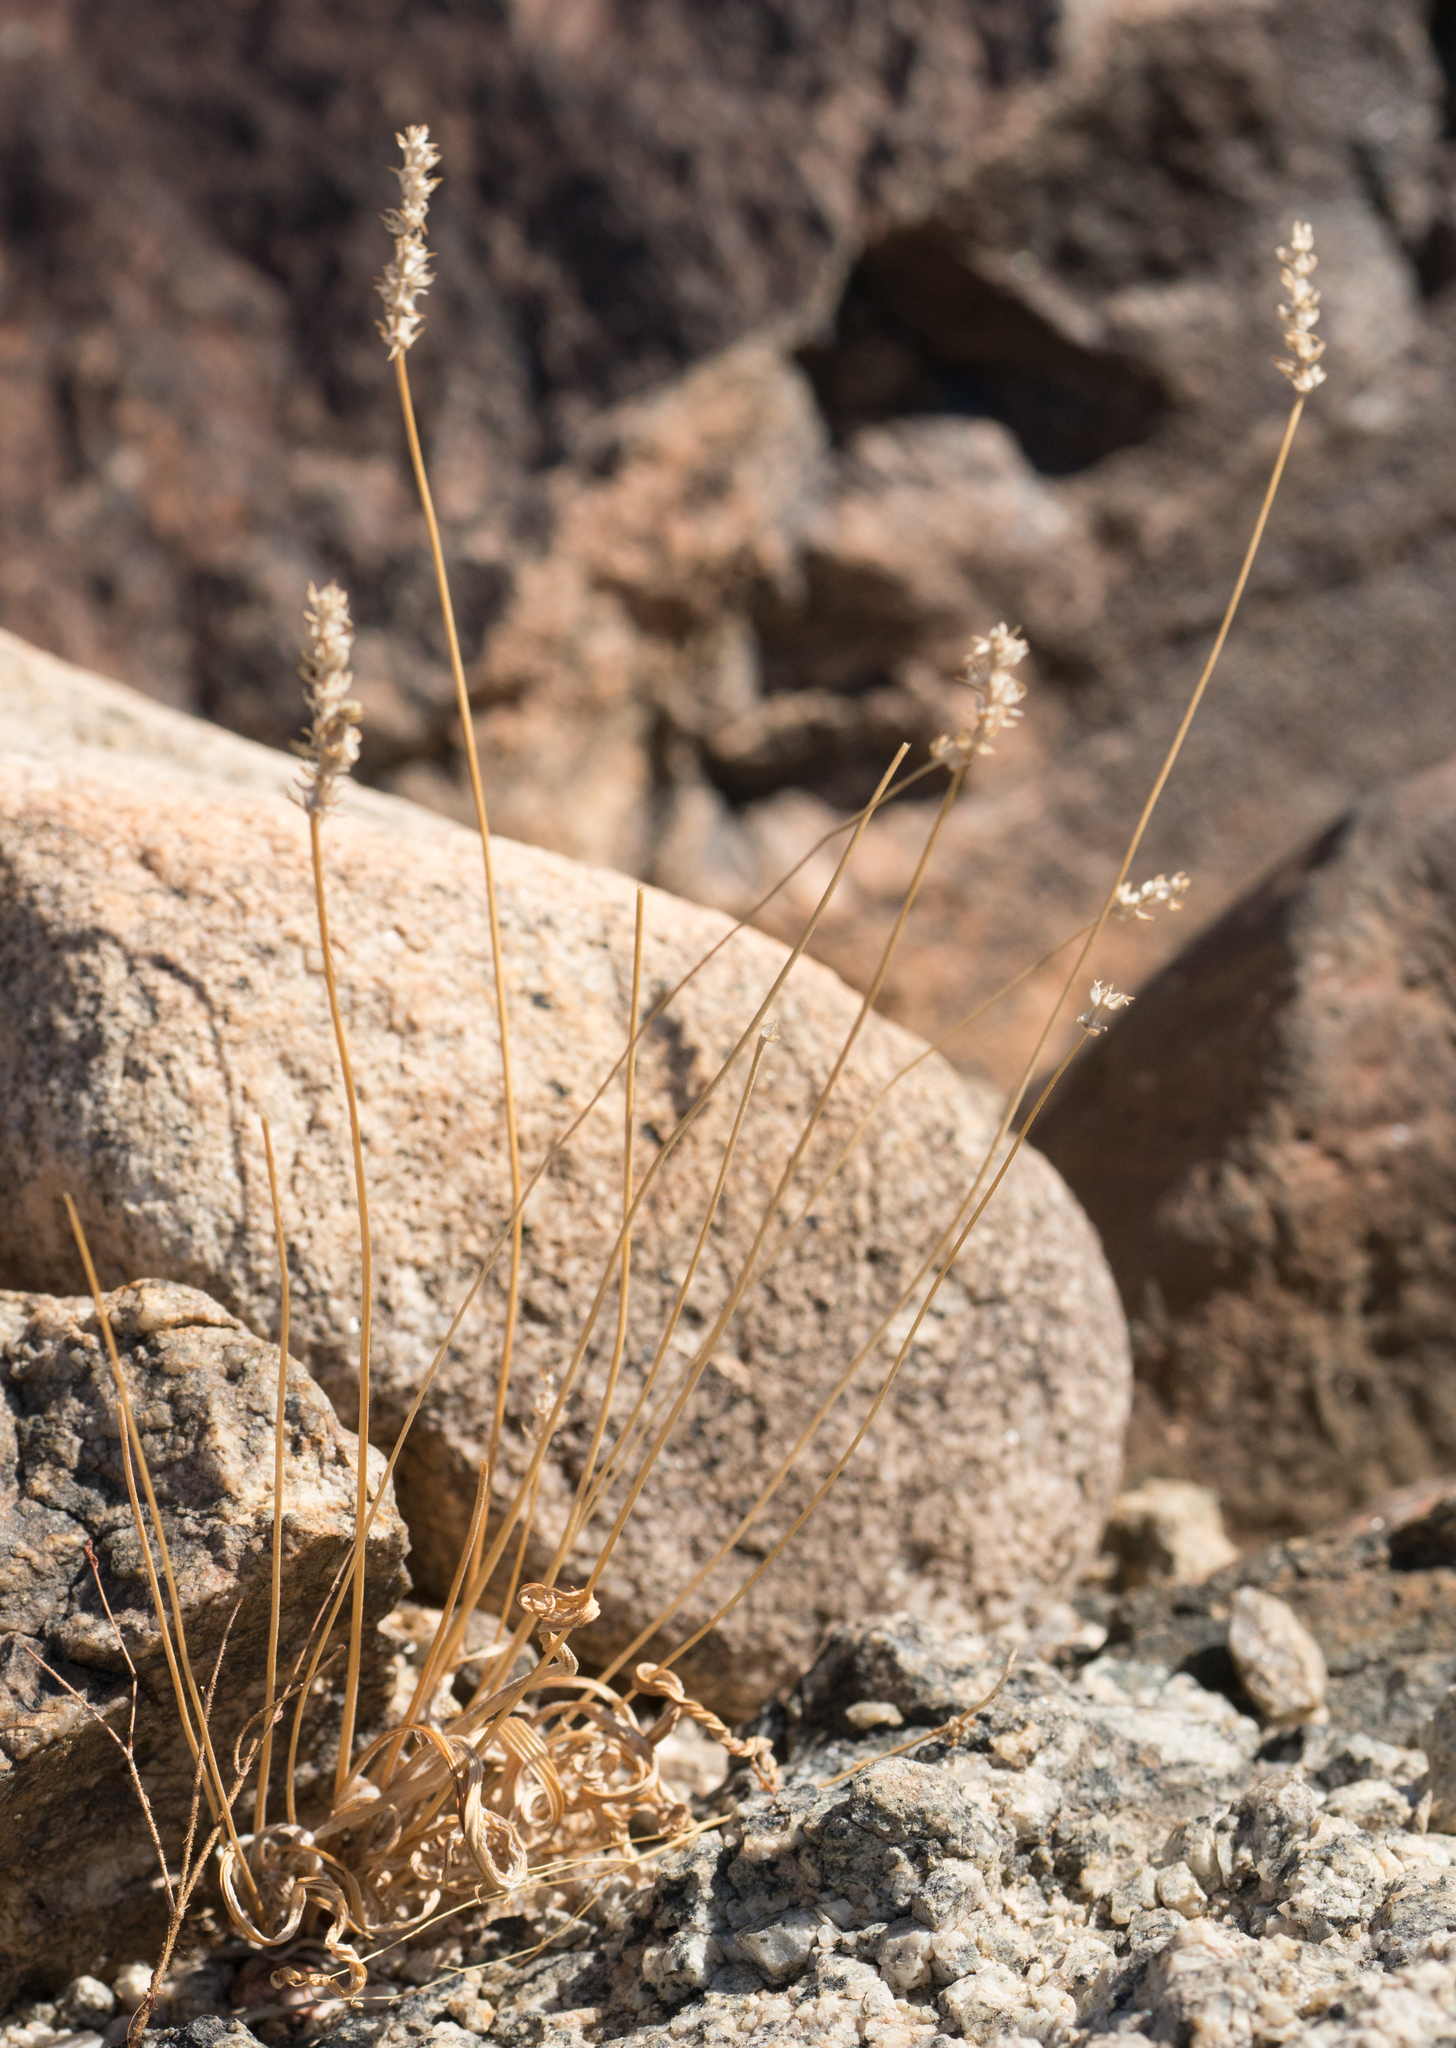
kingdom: Plantae
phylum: Tracheophyta
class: Magnoliopsida
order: Lamiales
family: Plantaginaceae
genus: Plantago
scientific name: Plantago ovata
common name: Blond plantain
